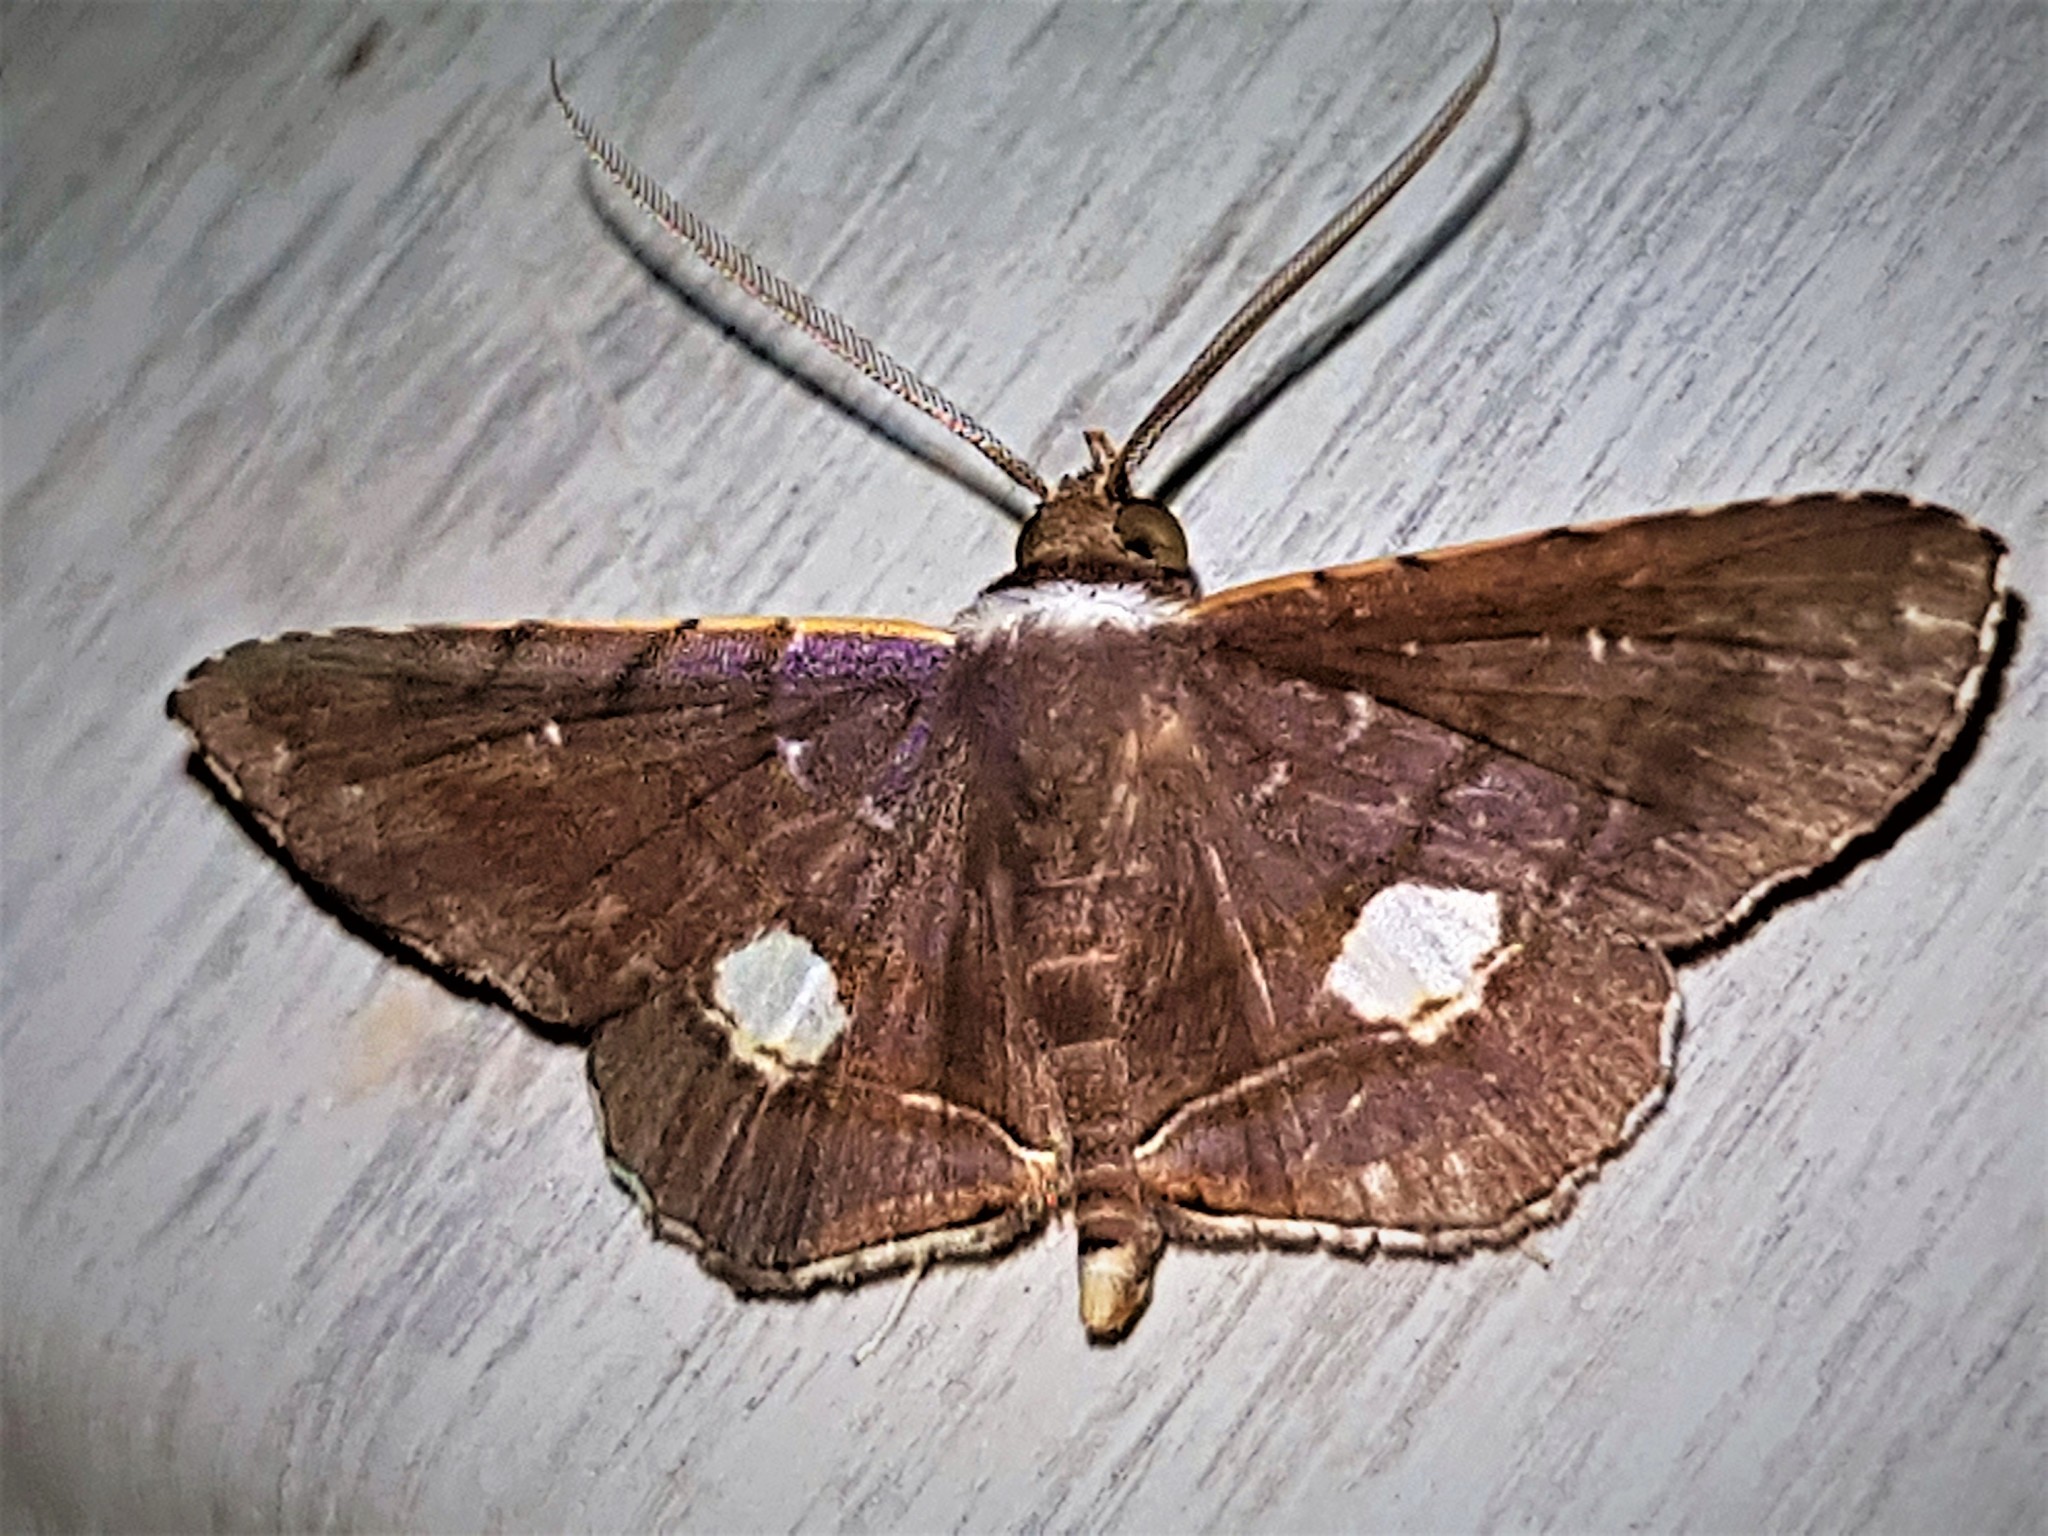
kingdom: Animalia
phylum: Arthropoda
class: Insecta
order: Lepidoptera
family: Erebidae
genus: Clapra
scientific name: Clapra oculata
